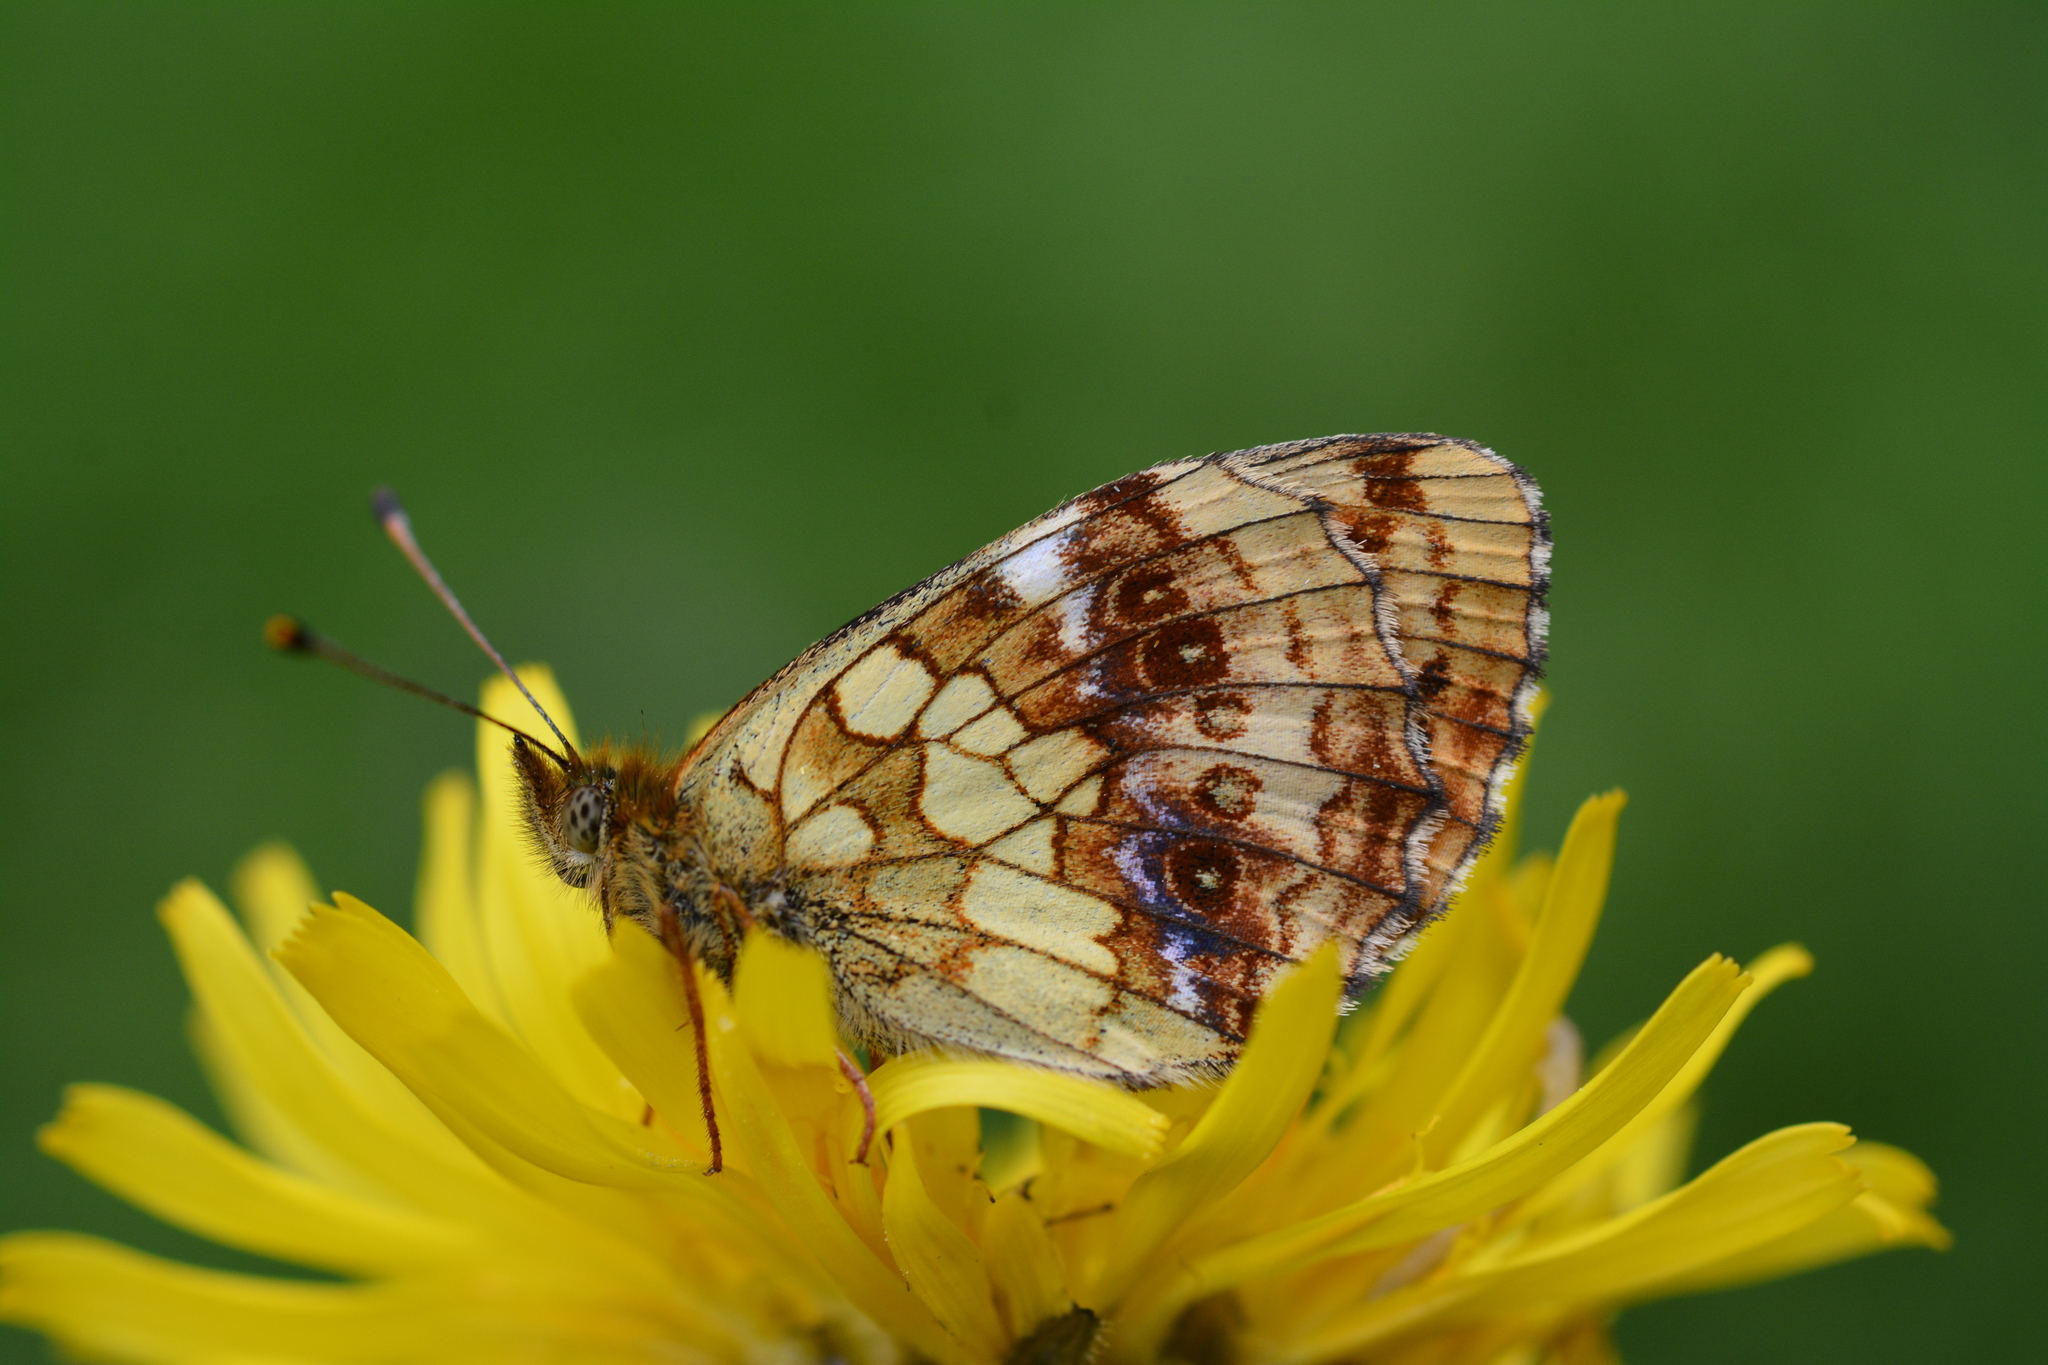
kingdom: Animalia
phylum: Arthropoda
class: Insecta
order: Lepidoptera
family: Nymphalidae
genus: Brenthis
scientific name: Brenthis ino
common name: Lesser marbled fritillary
